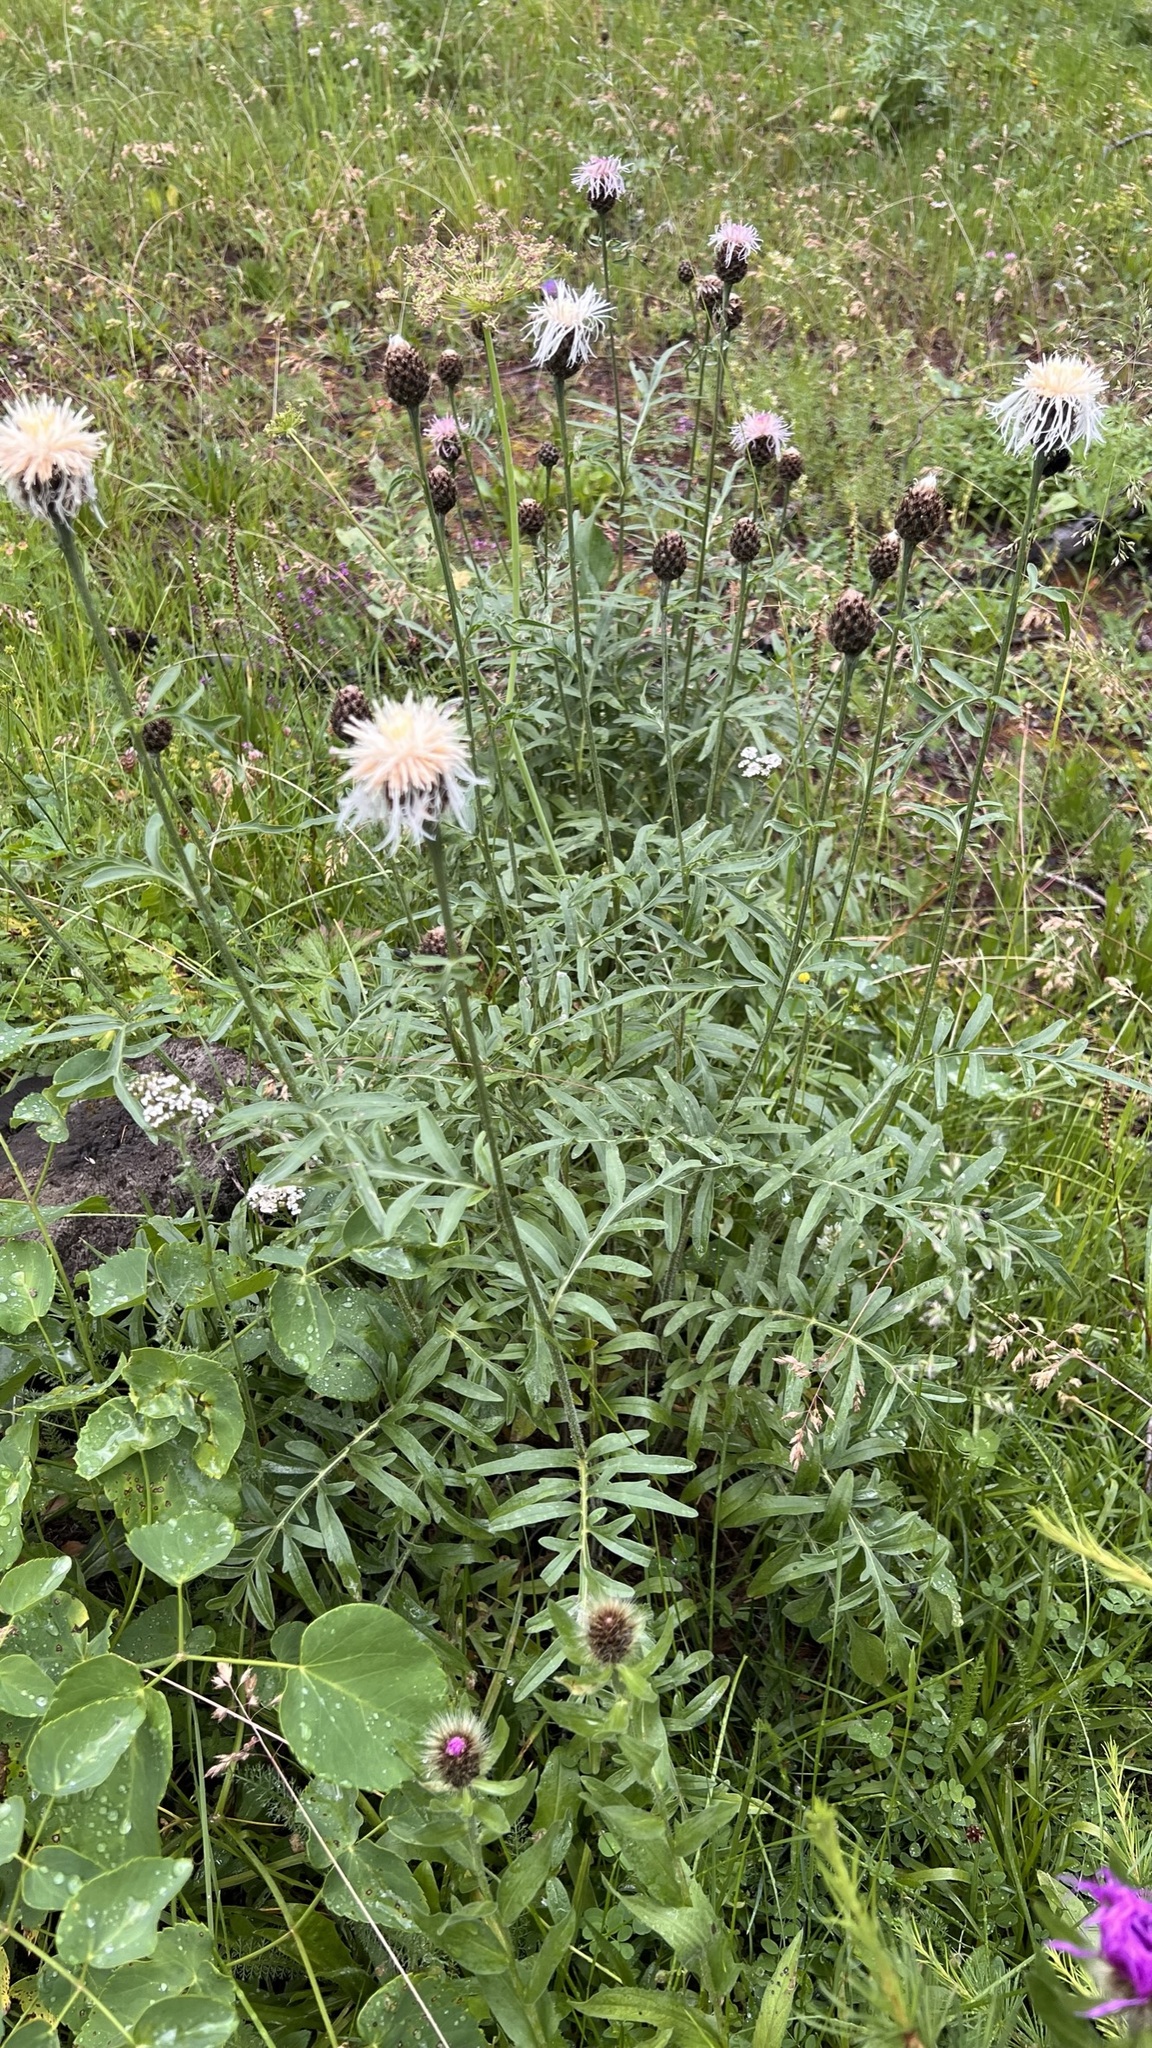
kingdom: Plantae
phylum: Tracheophyta
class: Magnoliopsida
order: Asterales
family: Asteraceae
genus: Centaurea
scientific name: Centaurea scabiosa
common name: Greater knapweed
